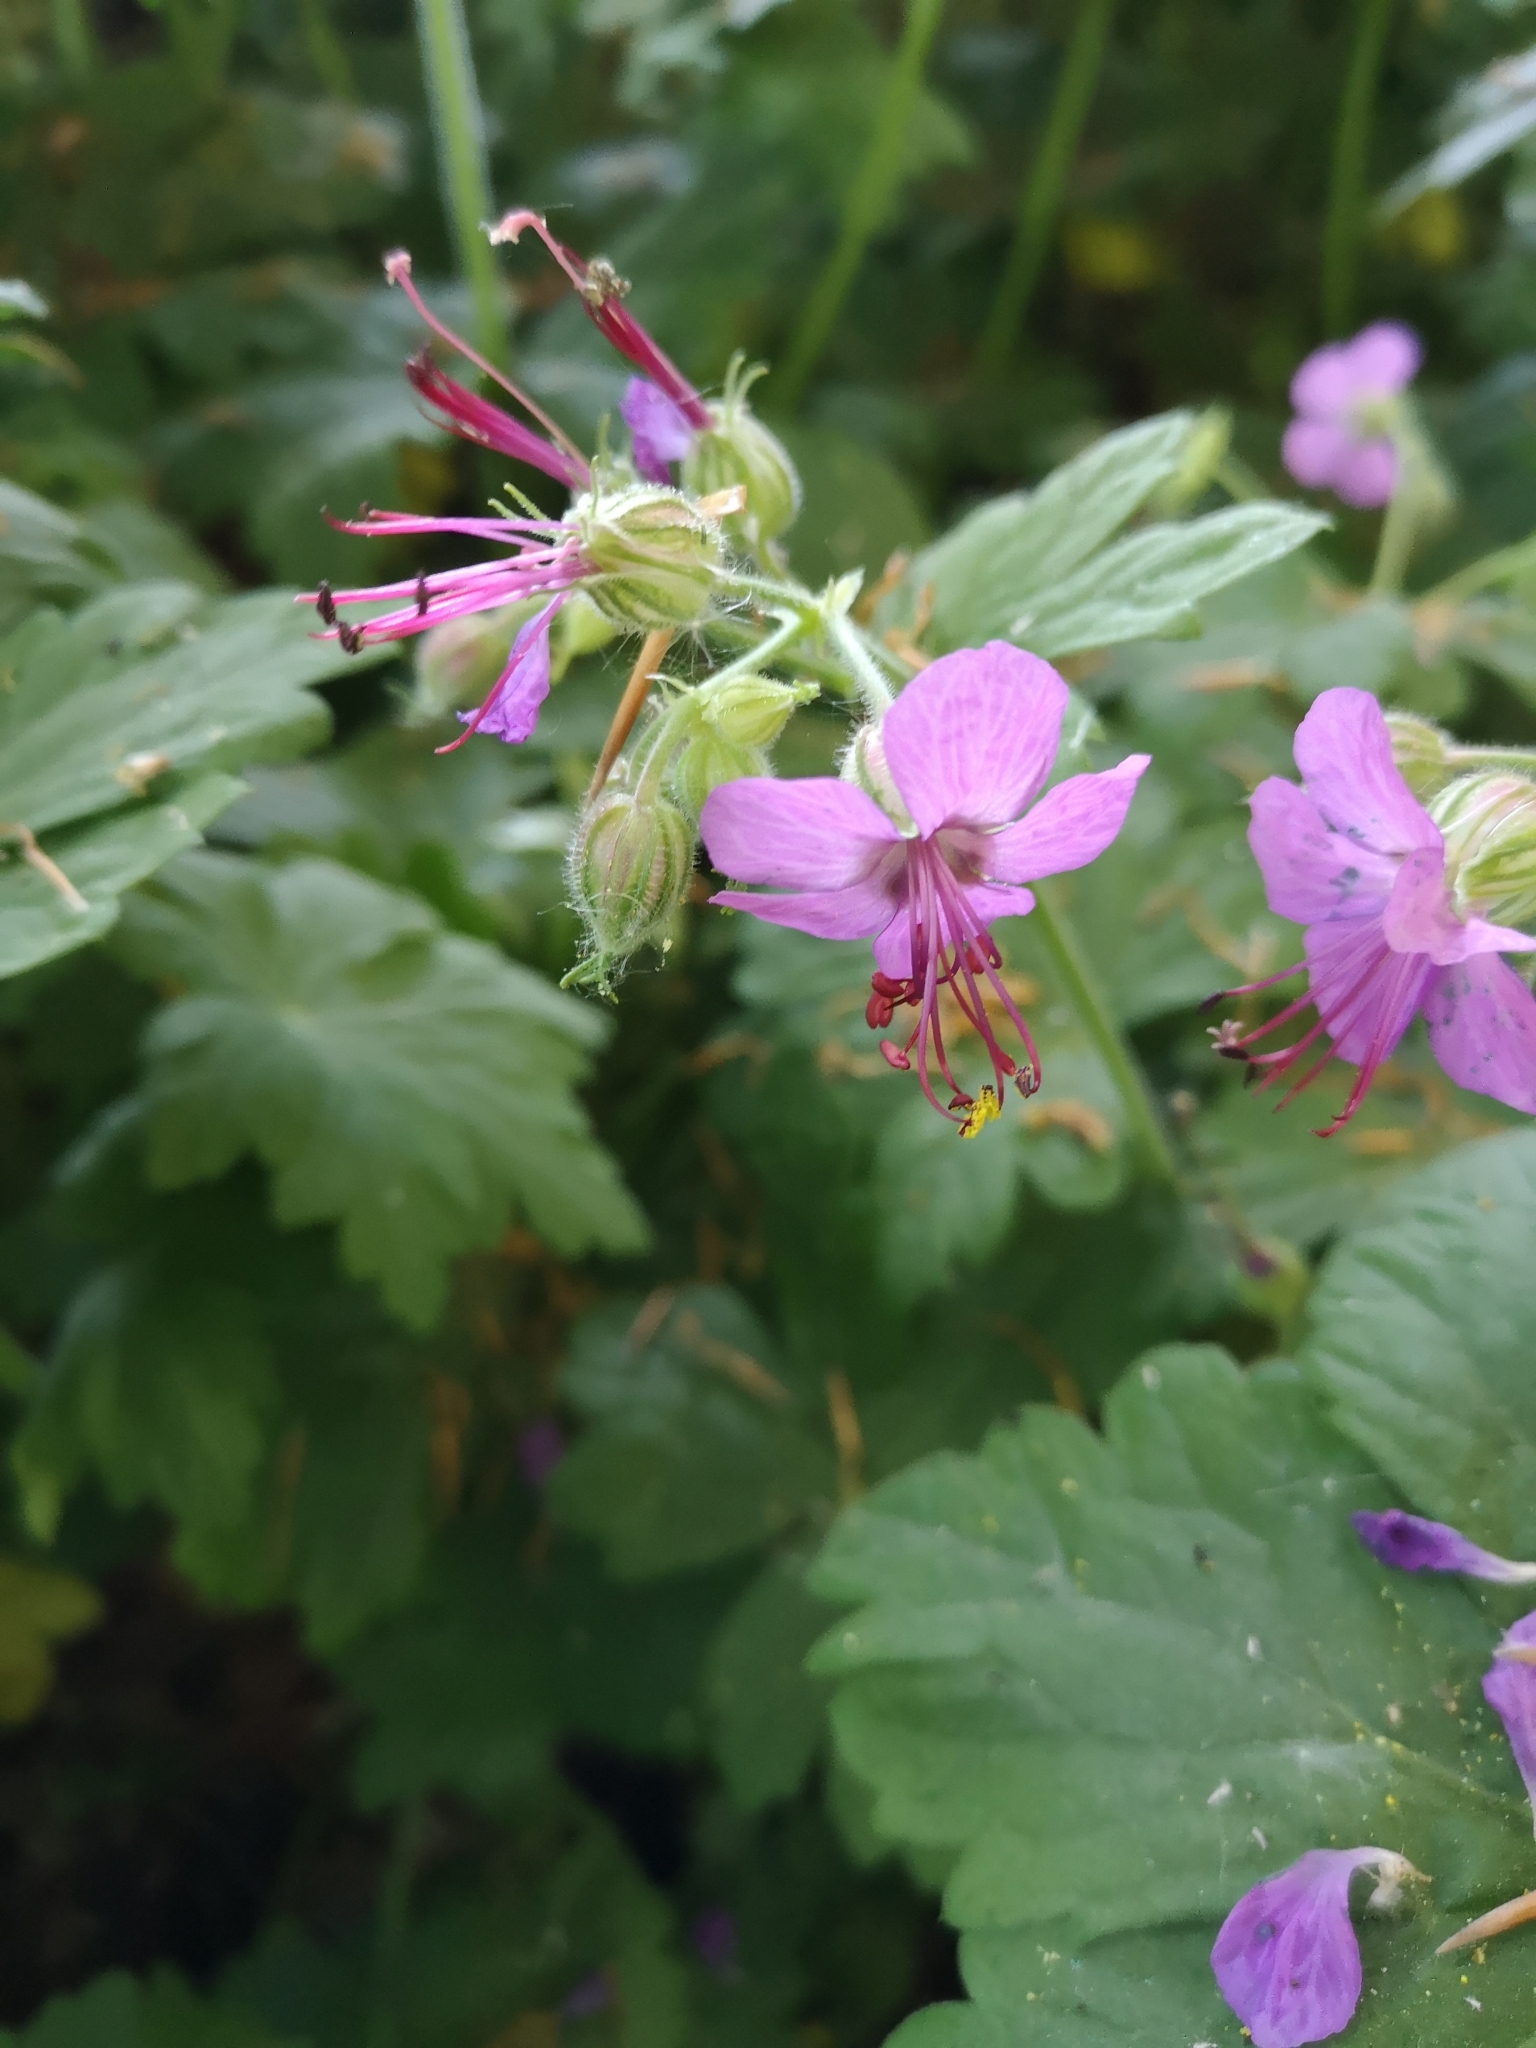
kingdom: Plantae
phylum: Tracheophyta
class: Magnoliopsida
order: Geraniales
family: Geraniaceae
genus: Geranium
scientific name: Geranium macrorrhizum
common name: Rock crane's-bill
